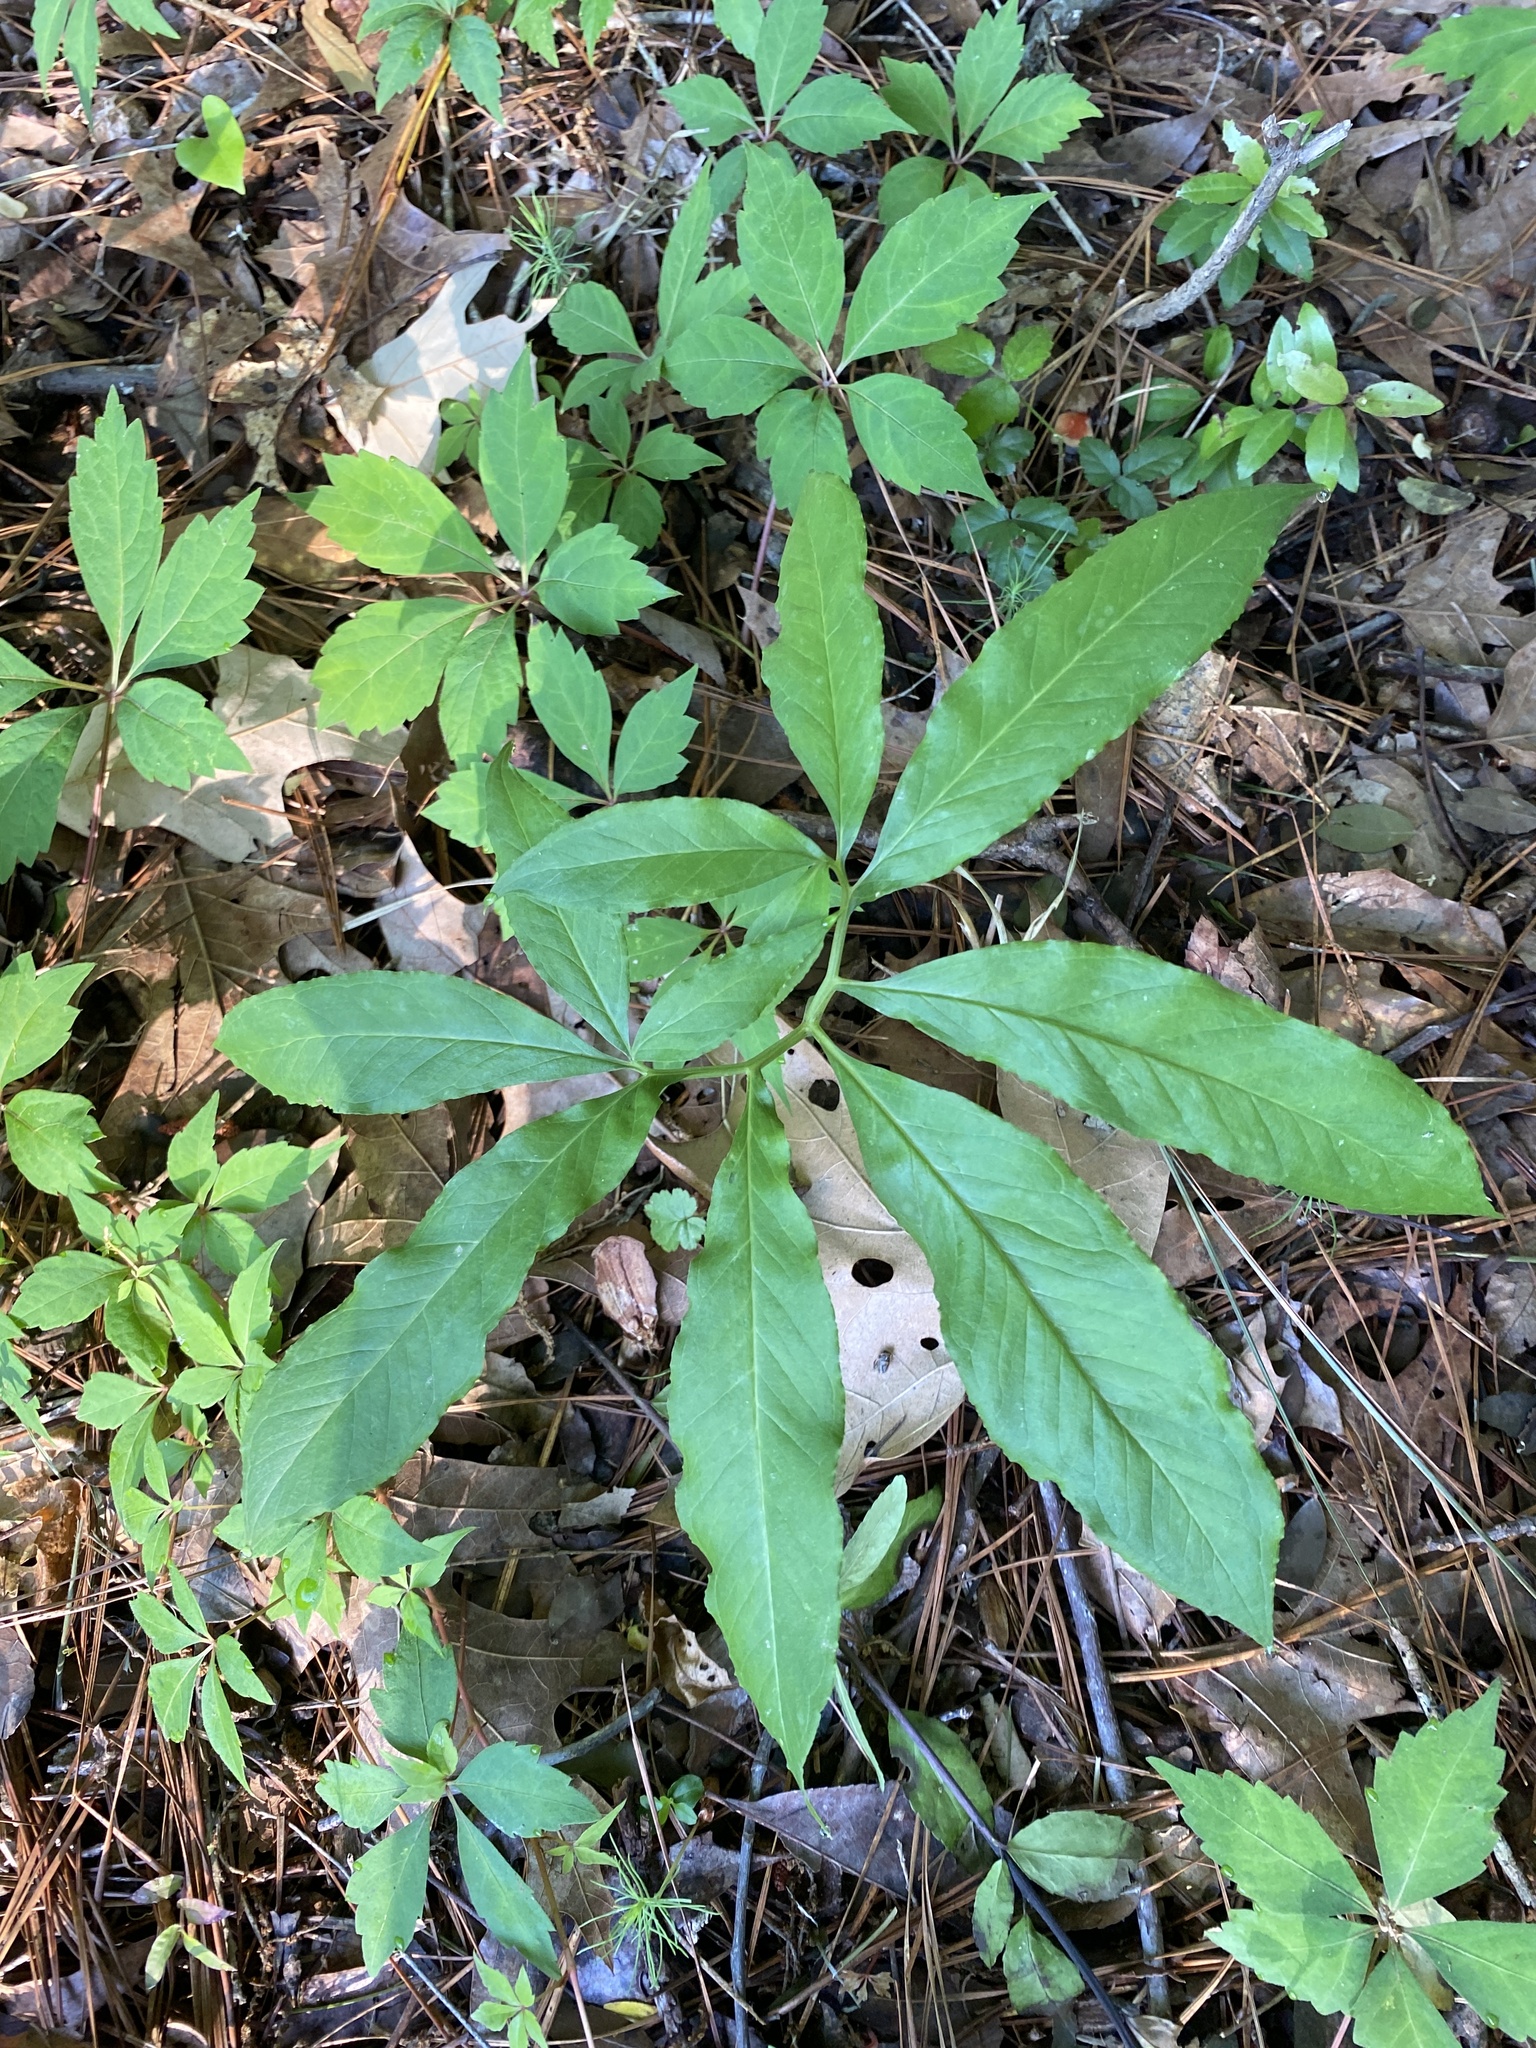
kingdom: Plantae
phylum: Tracheophyta
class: Liliopsida
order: Alismatales
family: Araceae
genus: Arisaema
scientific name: Arisaema dracontium
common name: Dragon-arum
